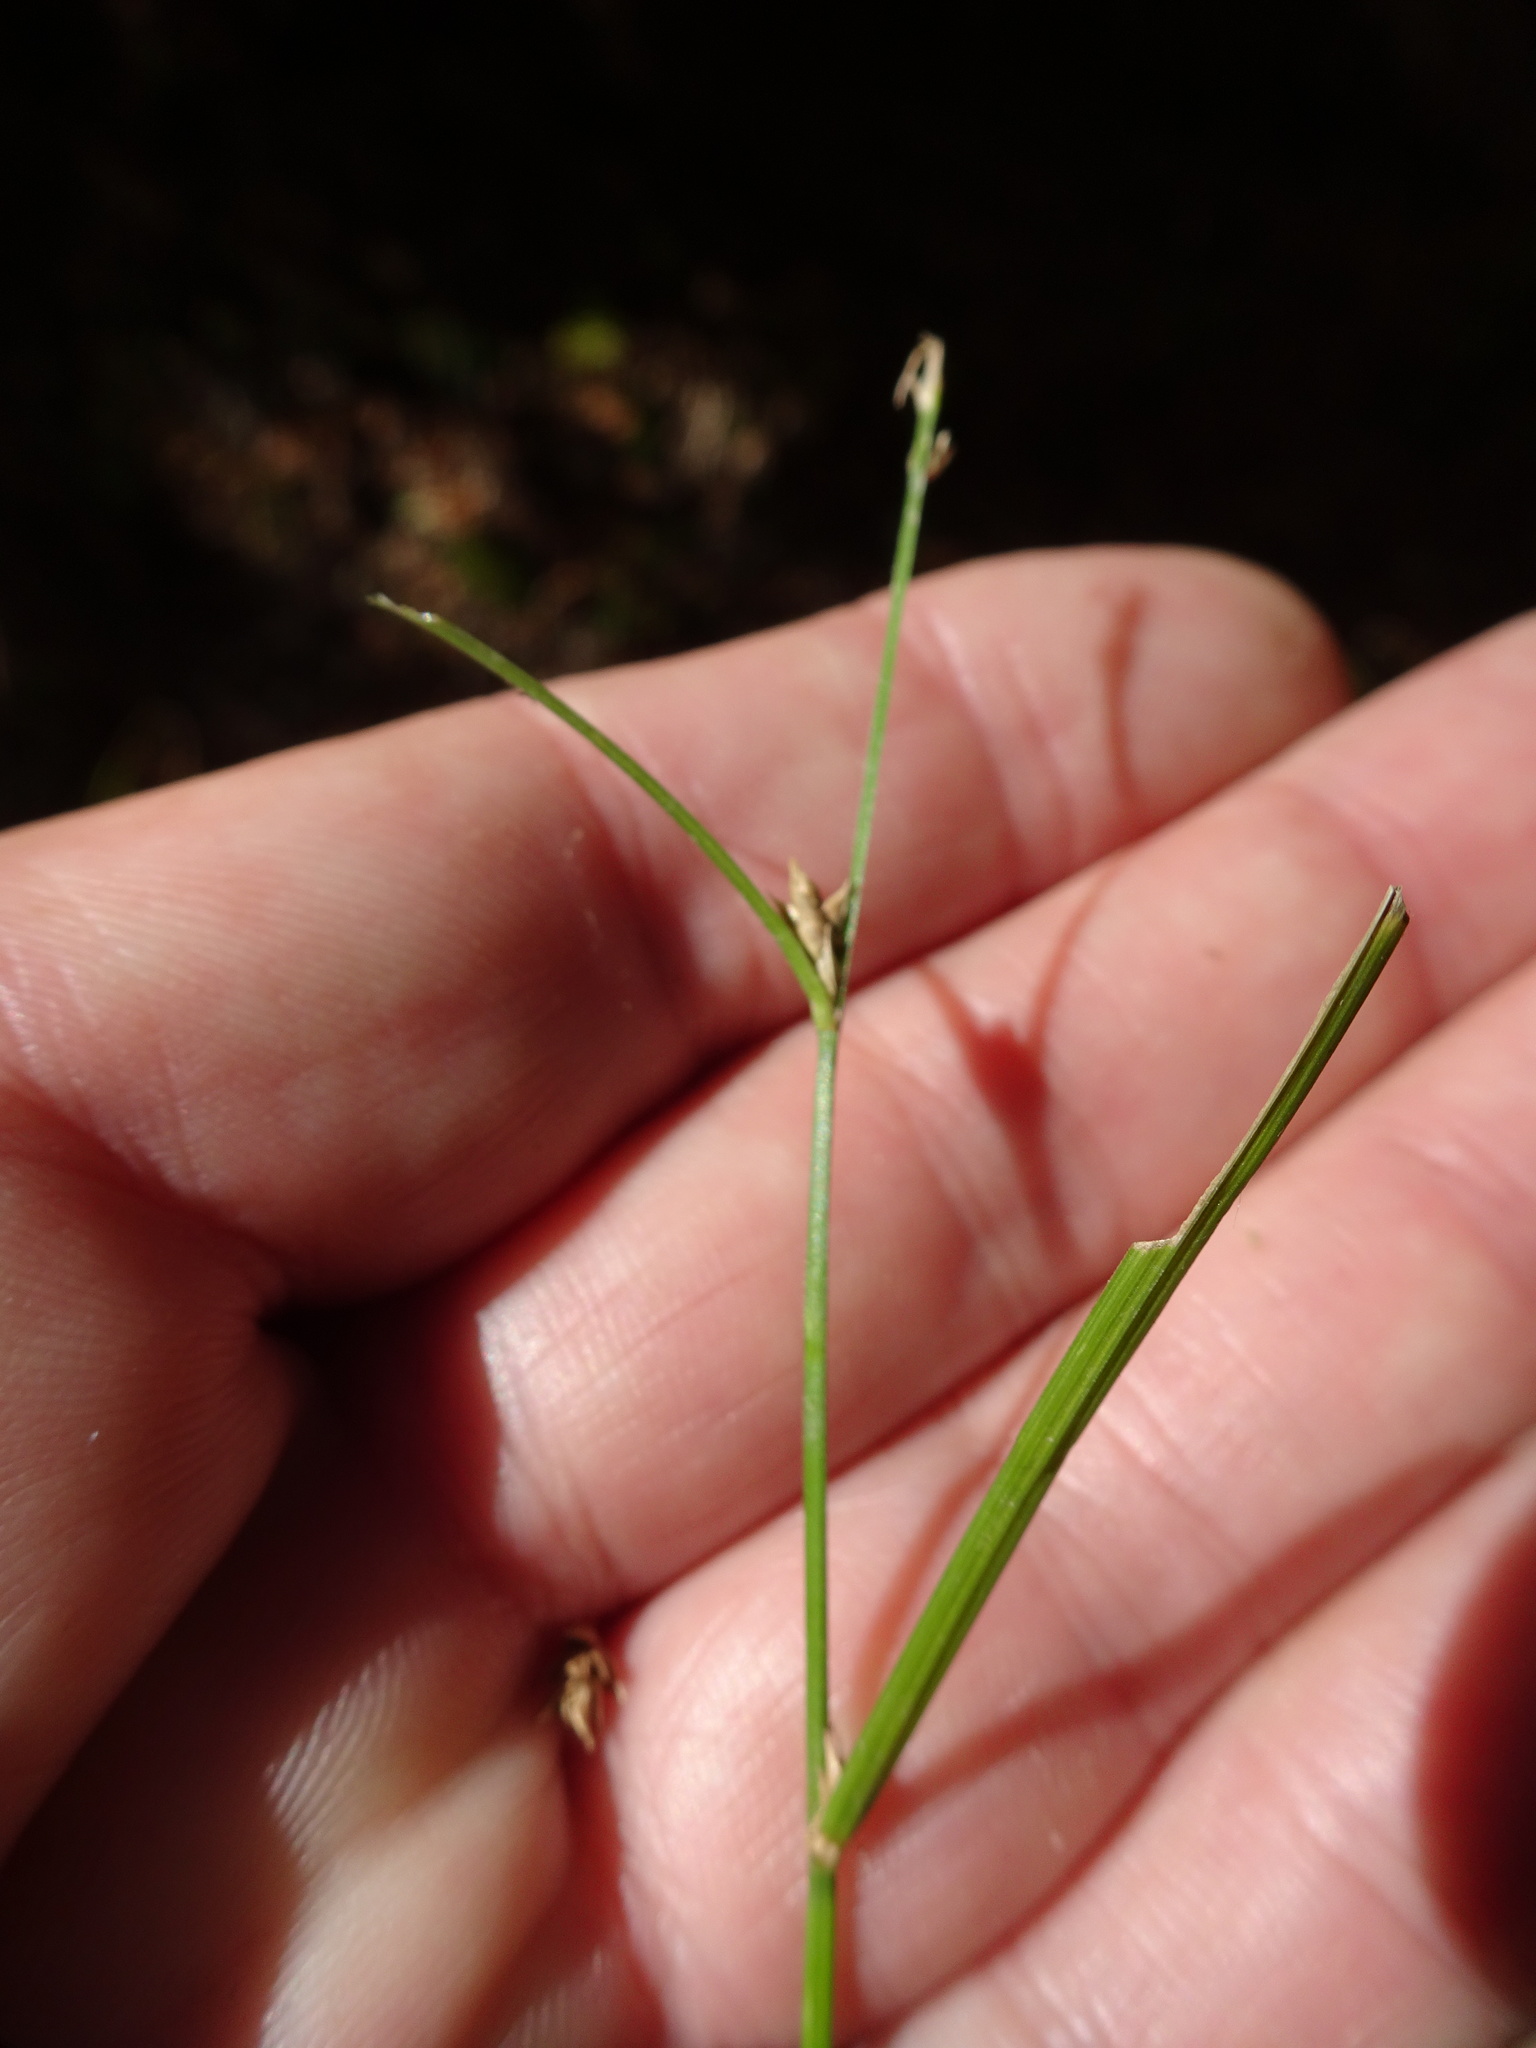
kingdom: Plantae
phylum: Tracheophyta
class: Liliopsida
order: Poales
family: Cyperaceae
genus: Carex
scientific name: Carex remota
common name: Remote sedge
